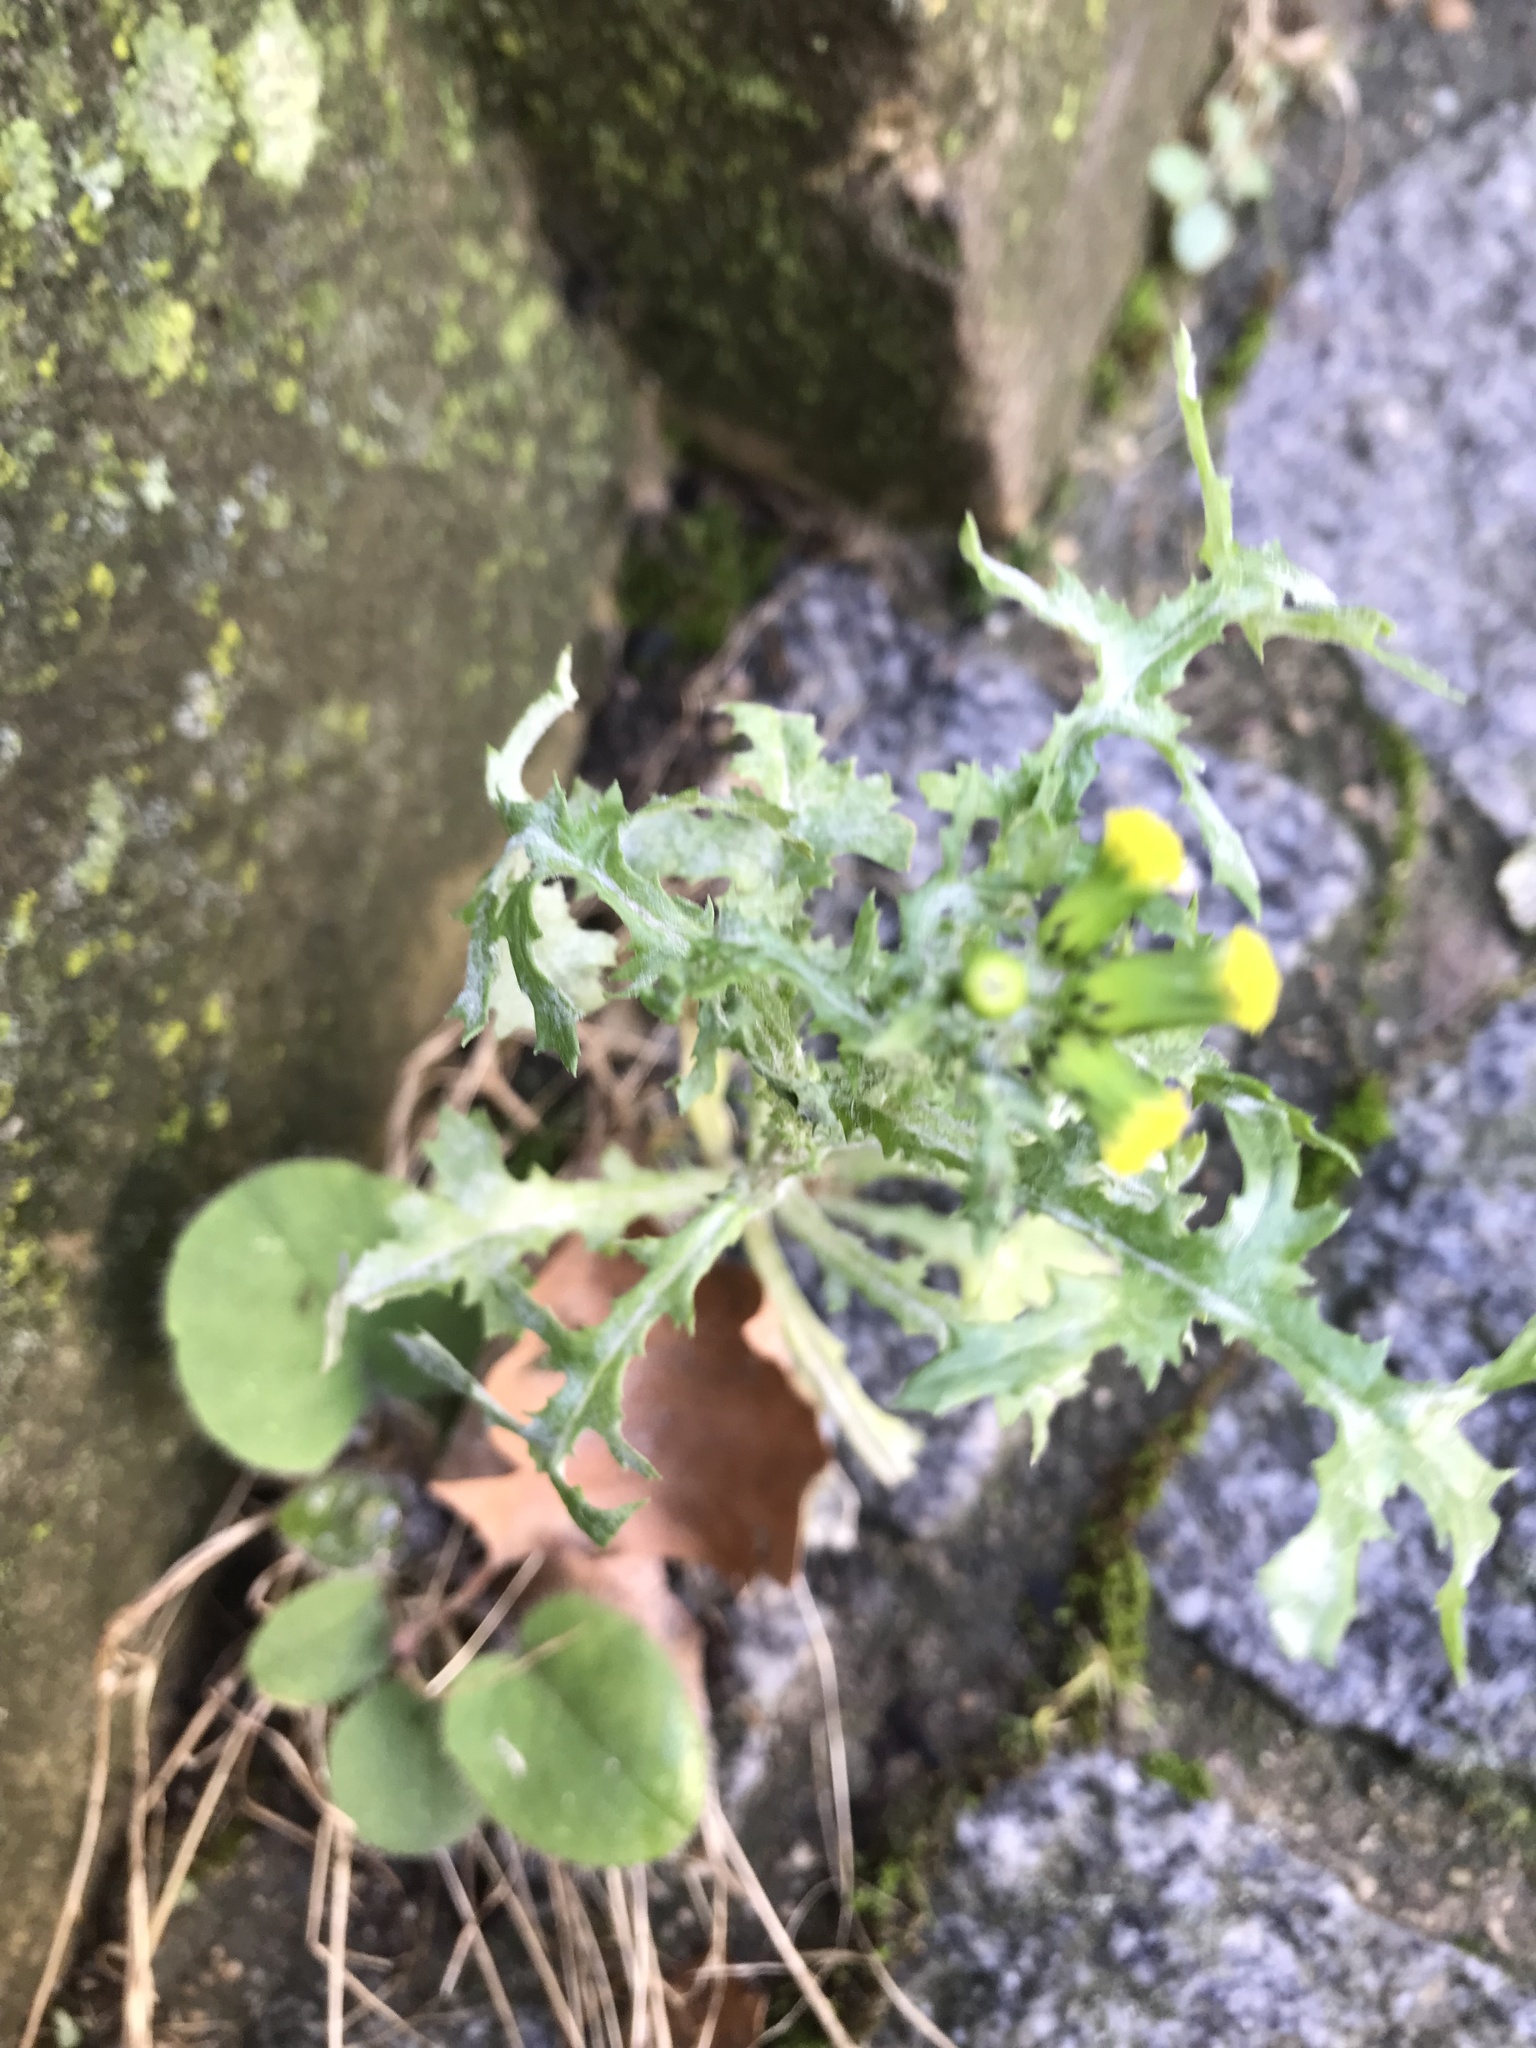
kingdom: Plantae
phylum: Tracheophyta
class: Magnoliopsida
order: Asterales
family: Asteraceae
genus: Senecio
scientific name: Senecio vulgaris
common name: Old-man-in-the-spring
